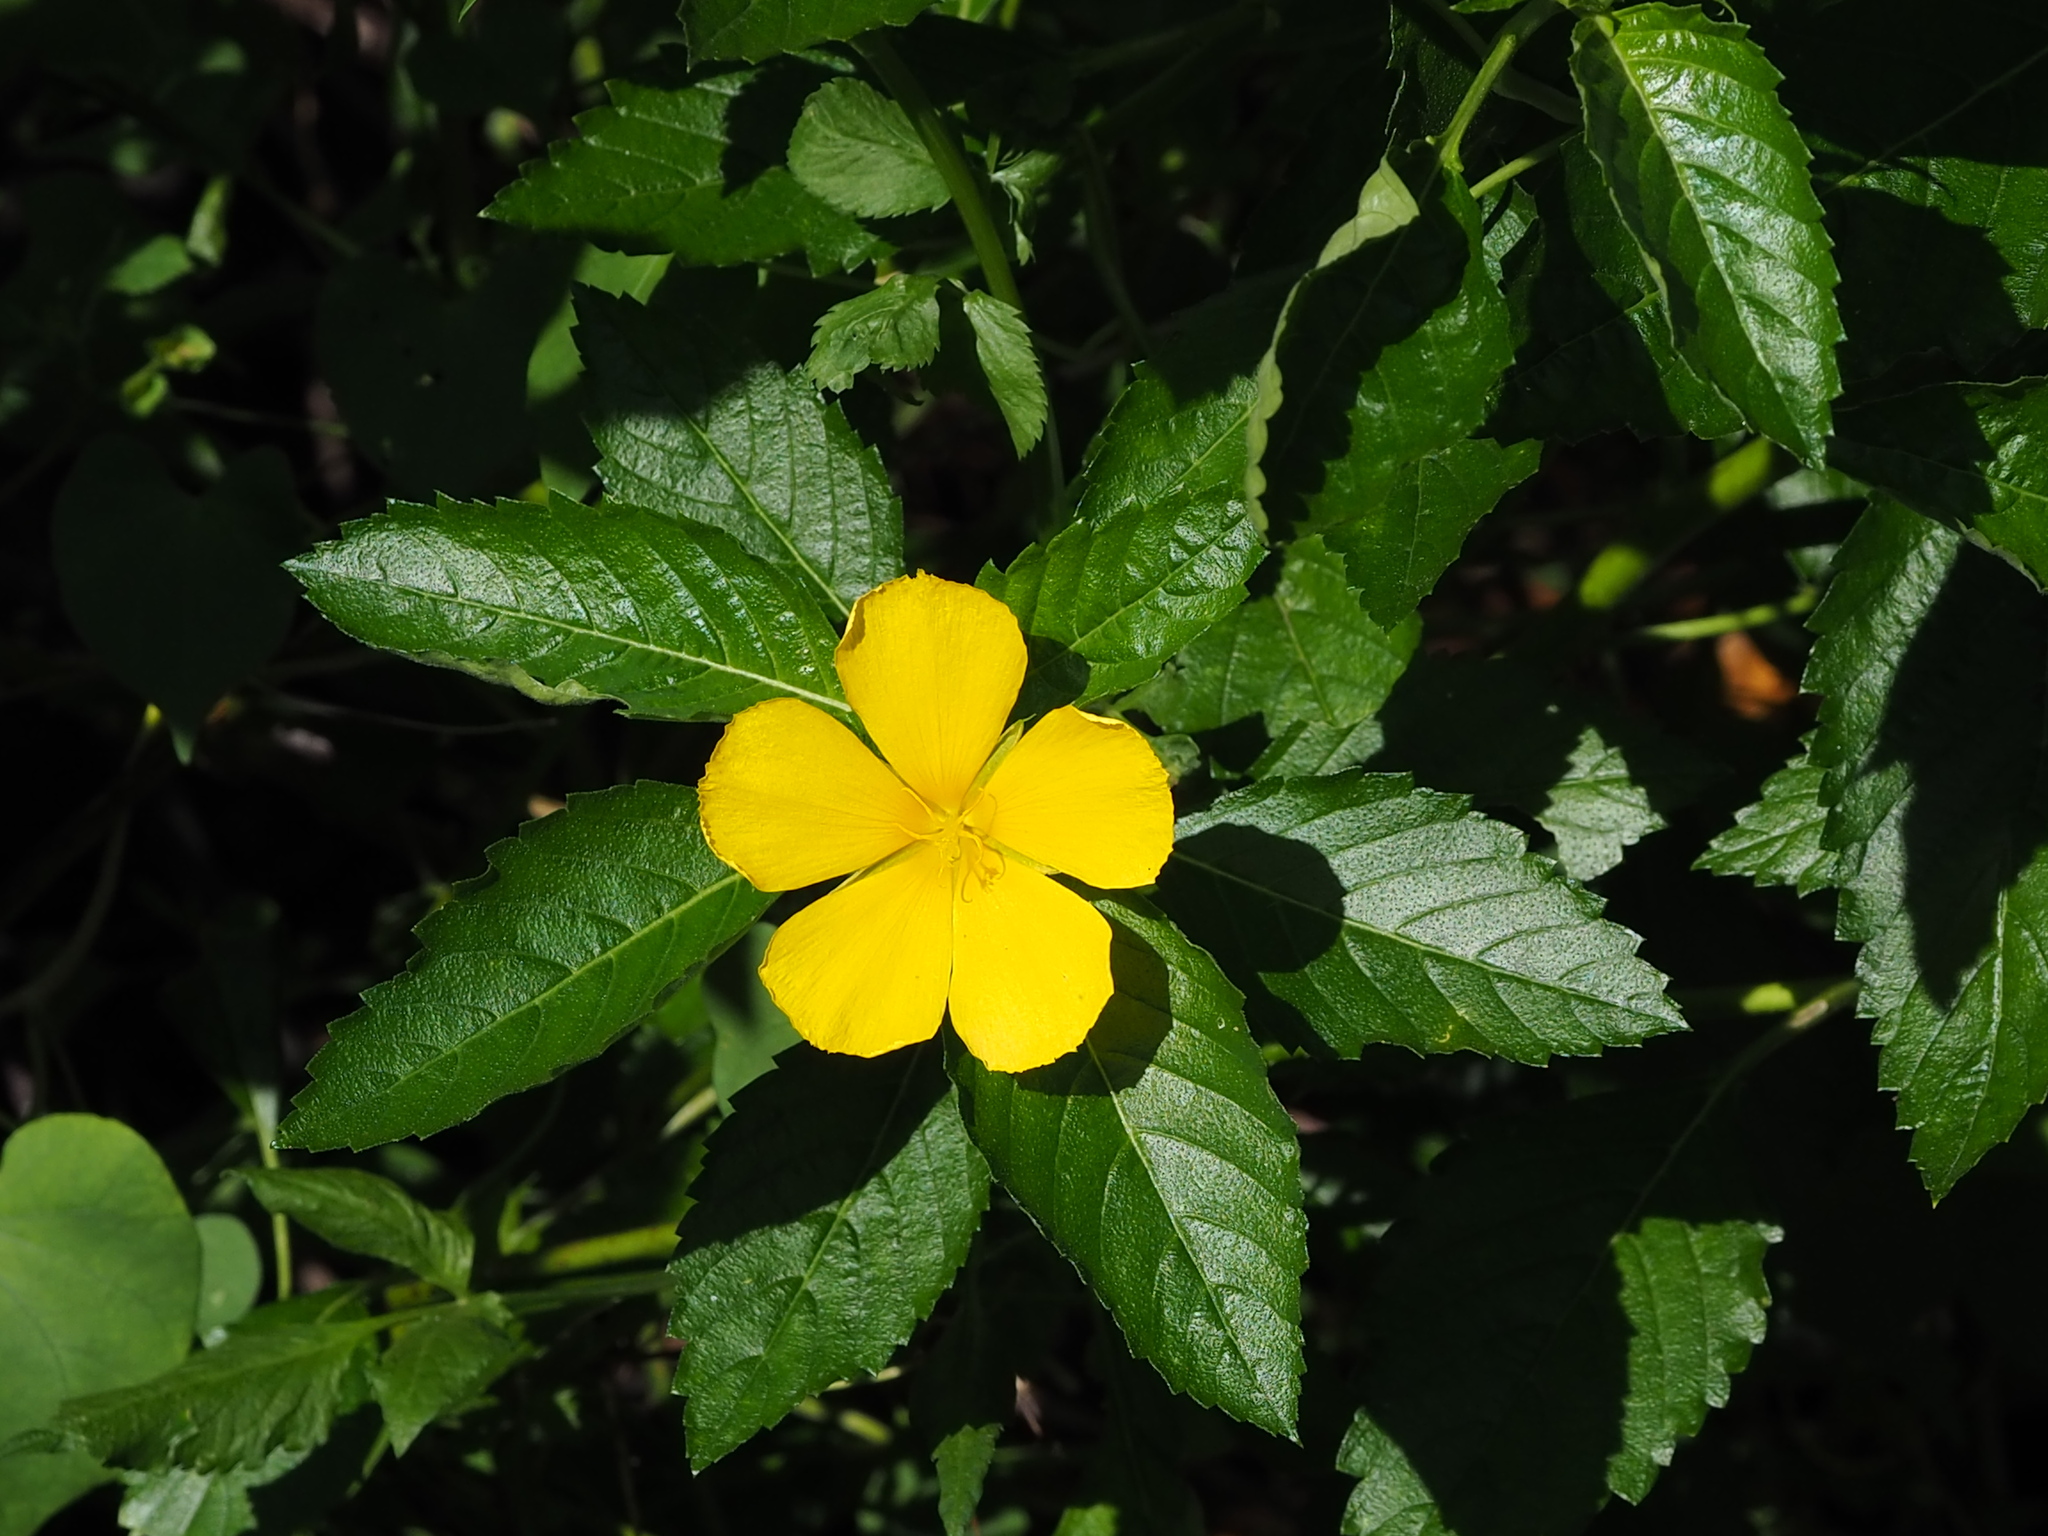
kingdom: Plantae
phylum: Tracheophyta
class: Magnoliopsida
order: Malpighiales
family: Turneraceae
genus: Turnera
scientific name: Turnera ulmifolia
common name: Ramgoat dashalong
